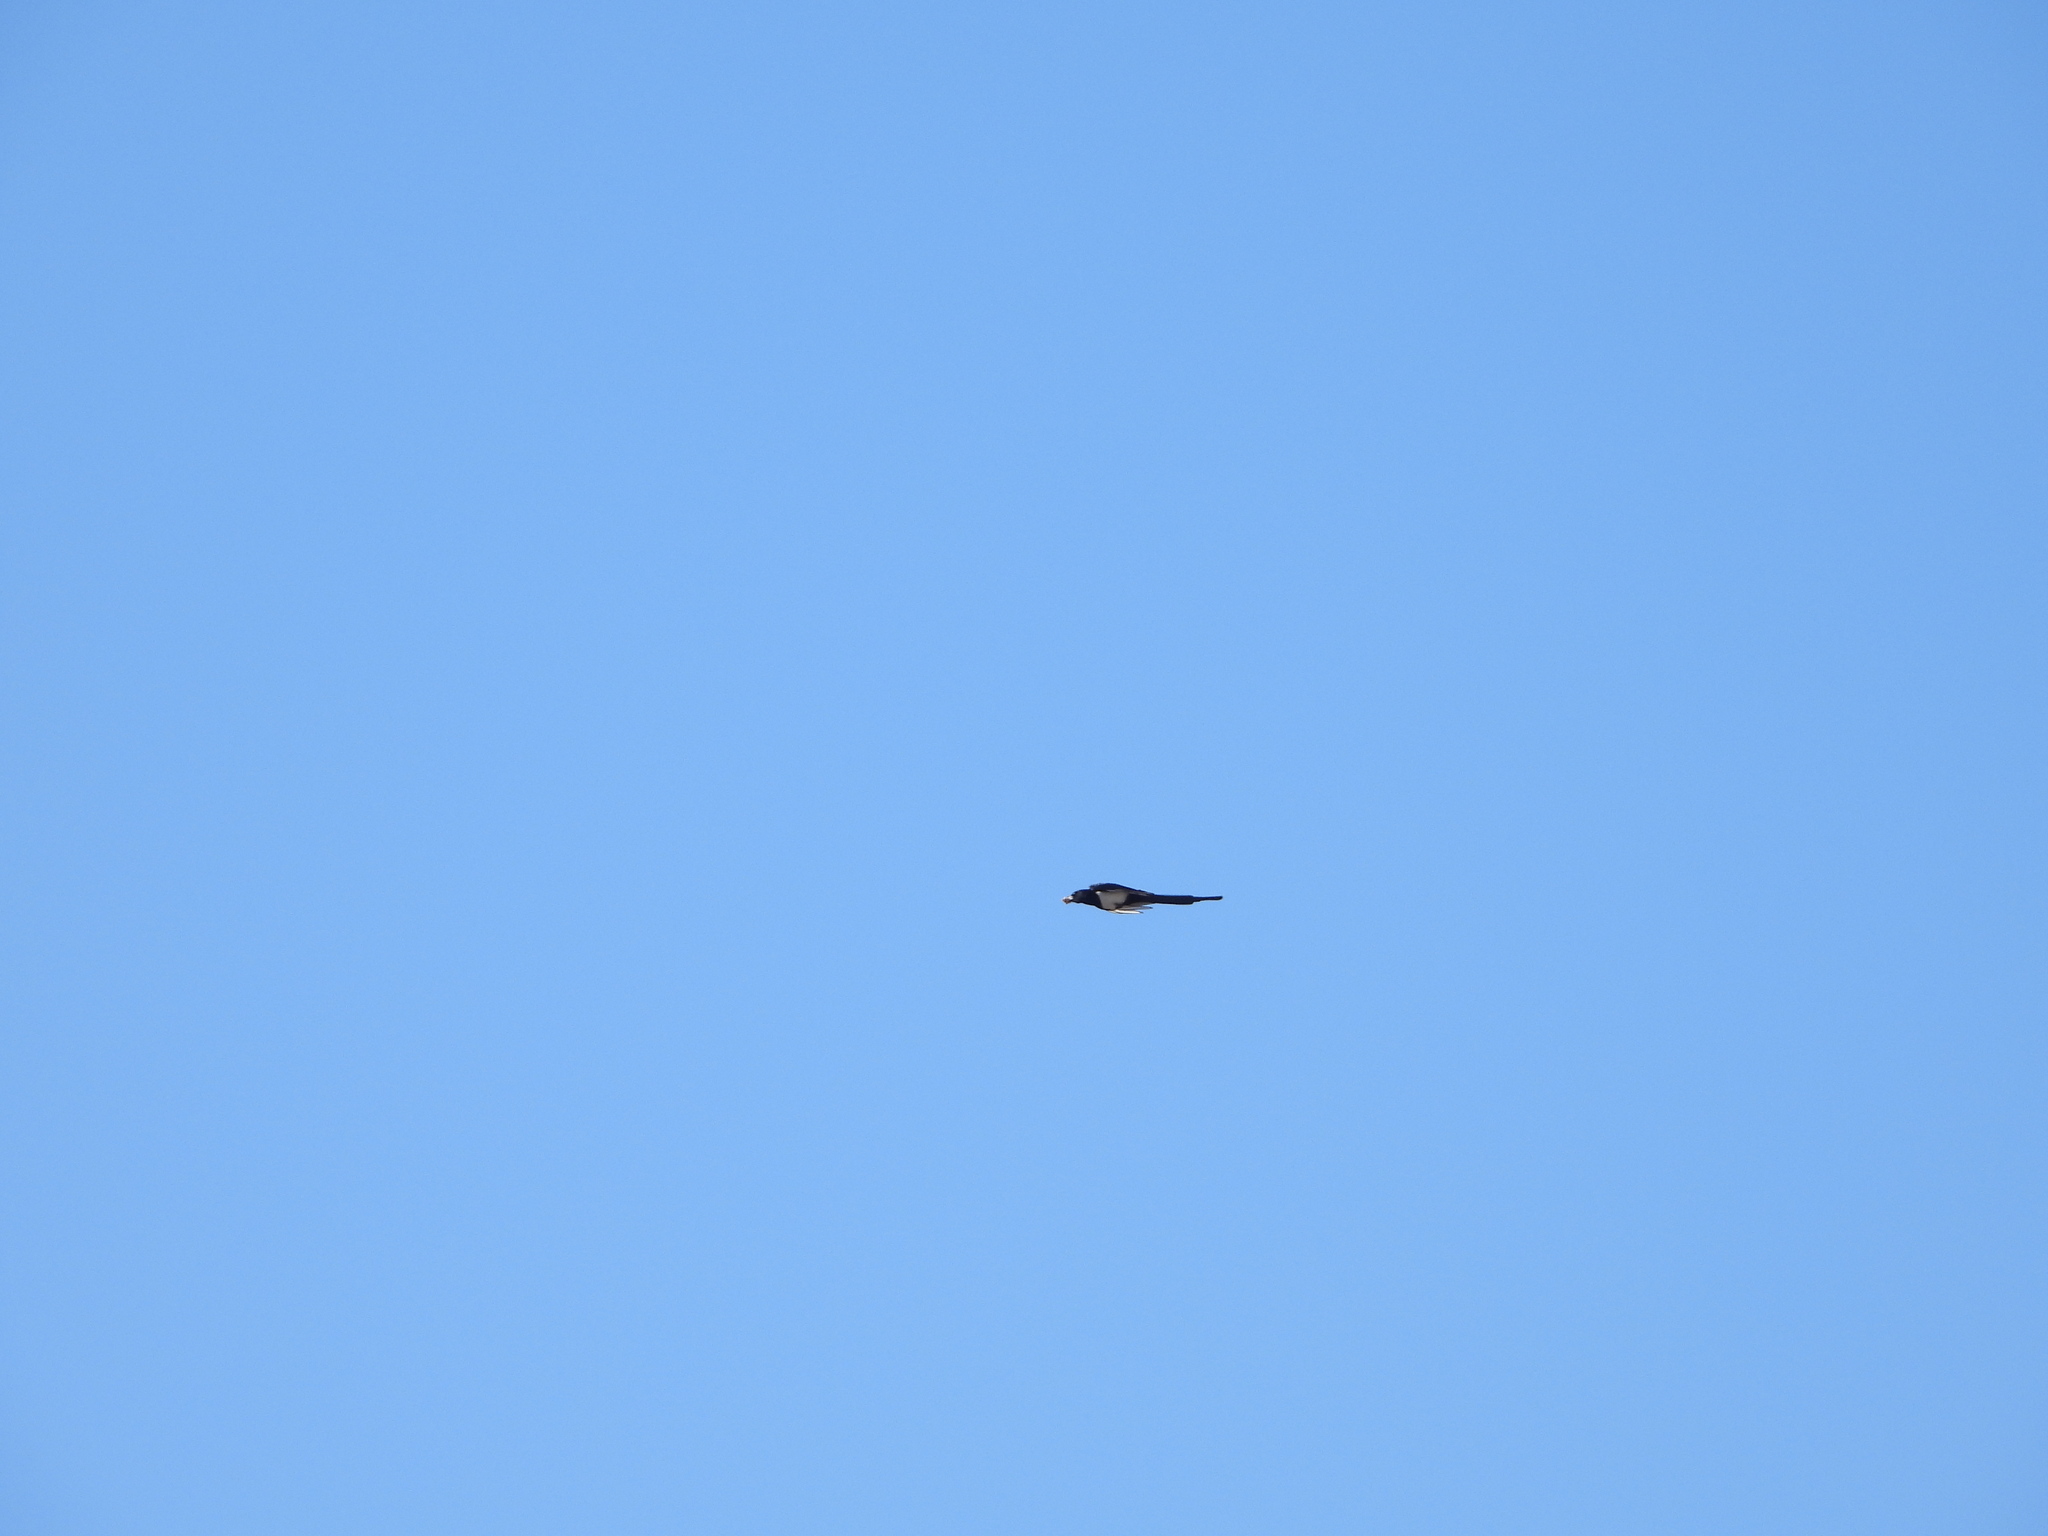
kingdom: Animalia
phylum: Chordata
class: Aves
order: Passeriformes
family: Corvidae
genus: Pica
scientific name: Pica hudsonia
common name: Black-billed magpie
